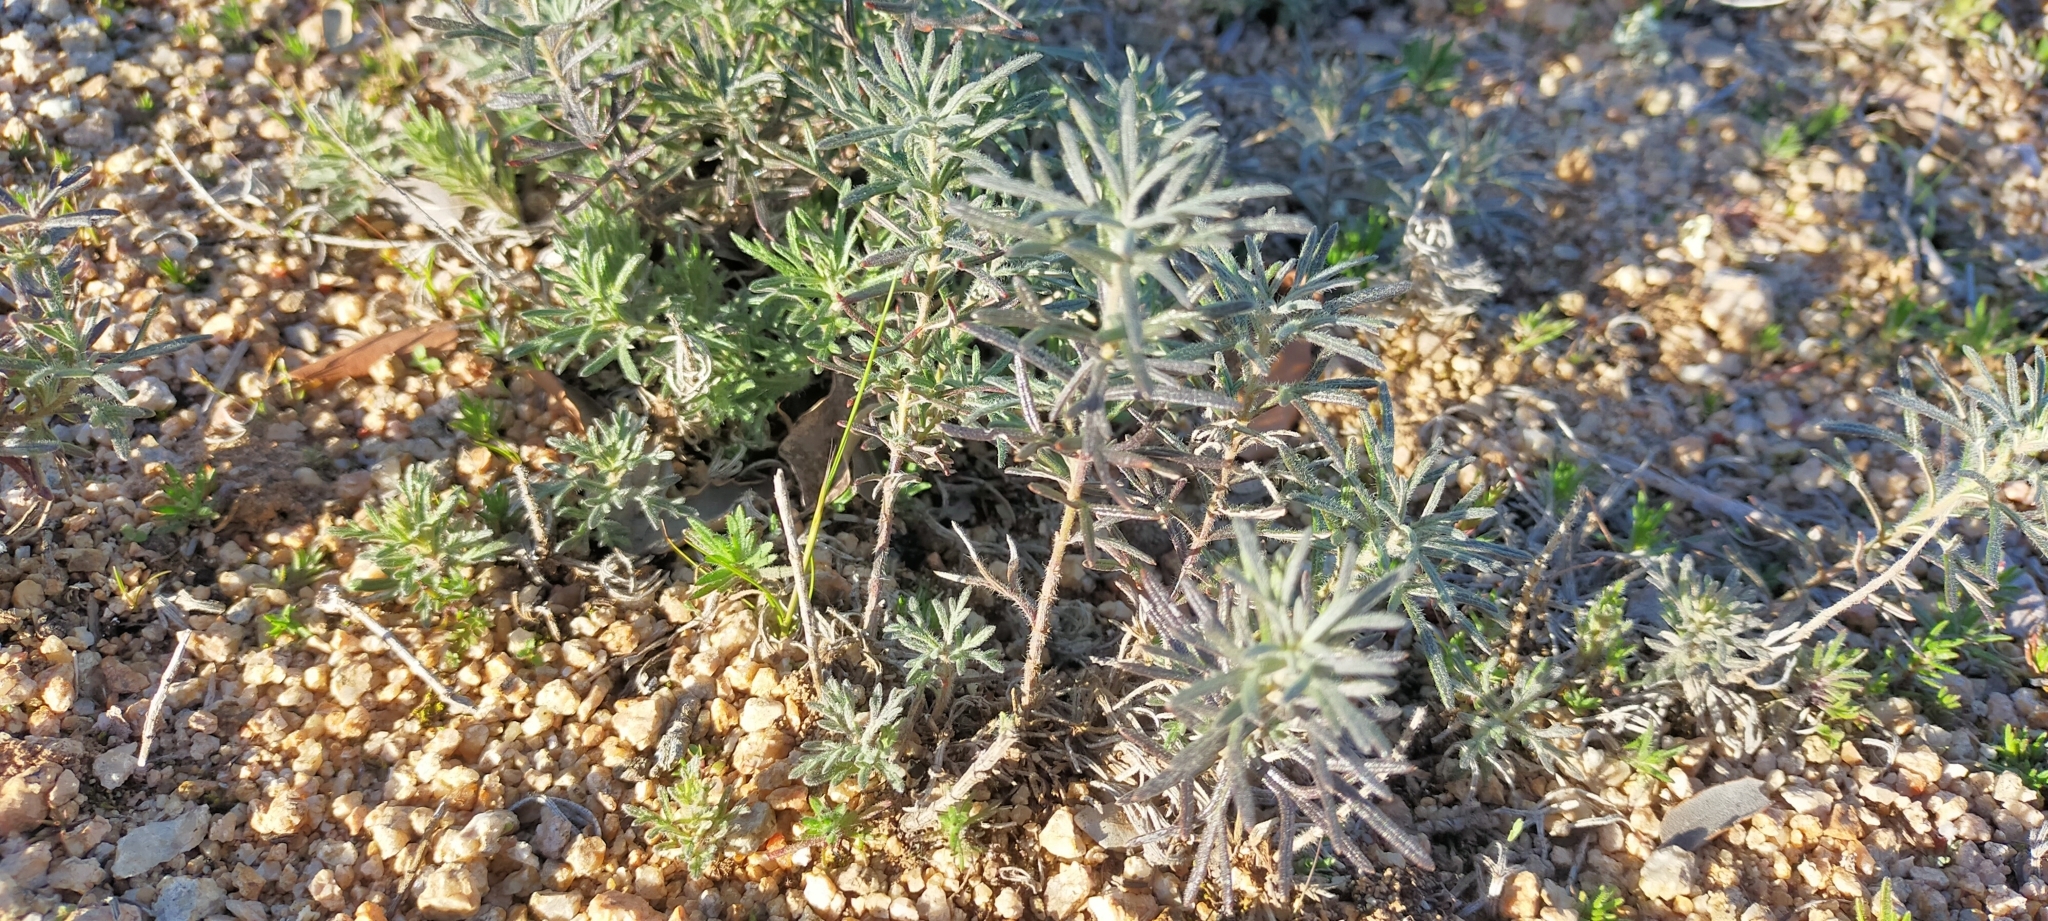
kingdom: Plantae
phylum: Tracheophyta
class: Magnoliopsida
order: Lamiales
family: Lamiaceae
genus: Teucrium
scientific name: Teucrium pseudochamaepitys
